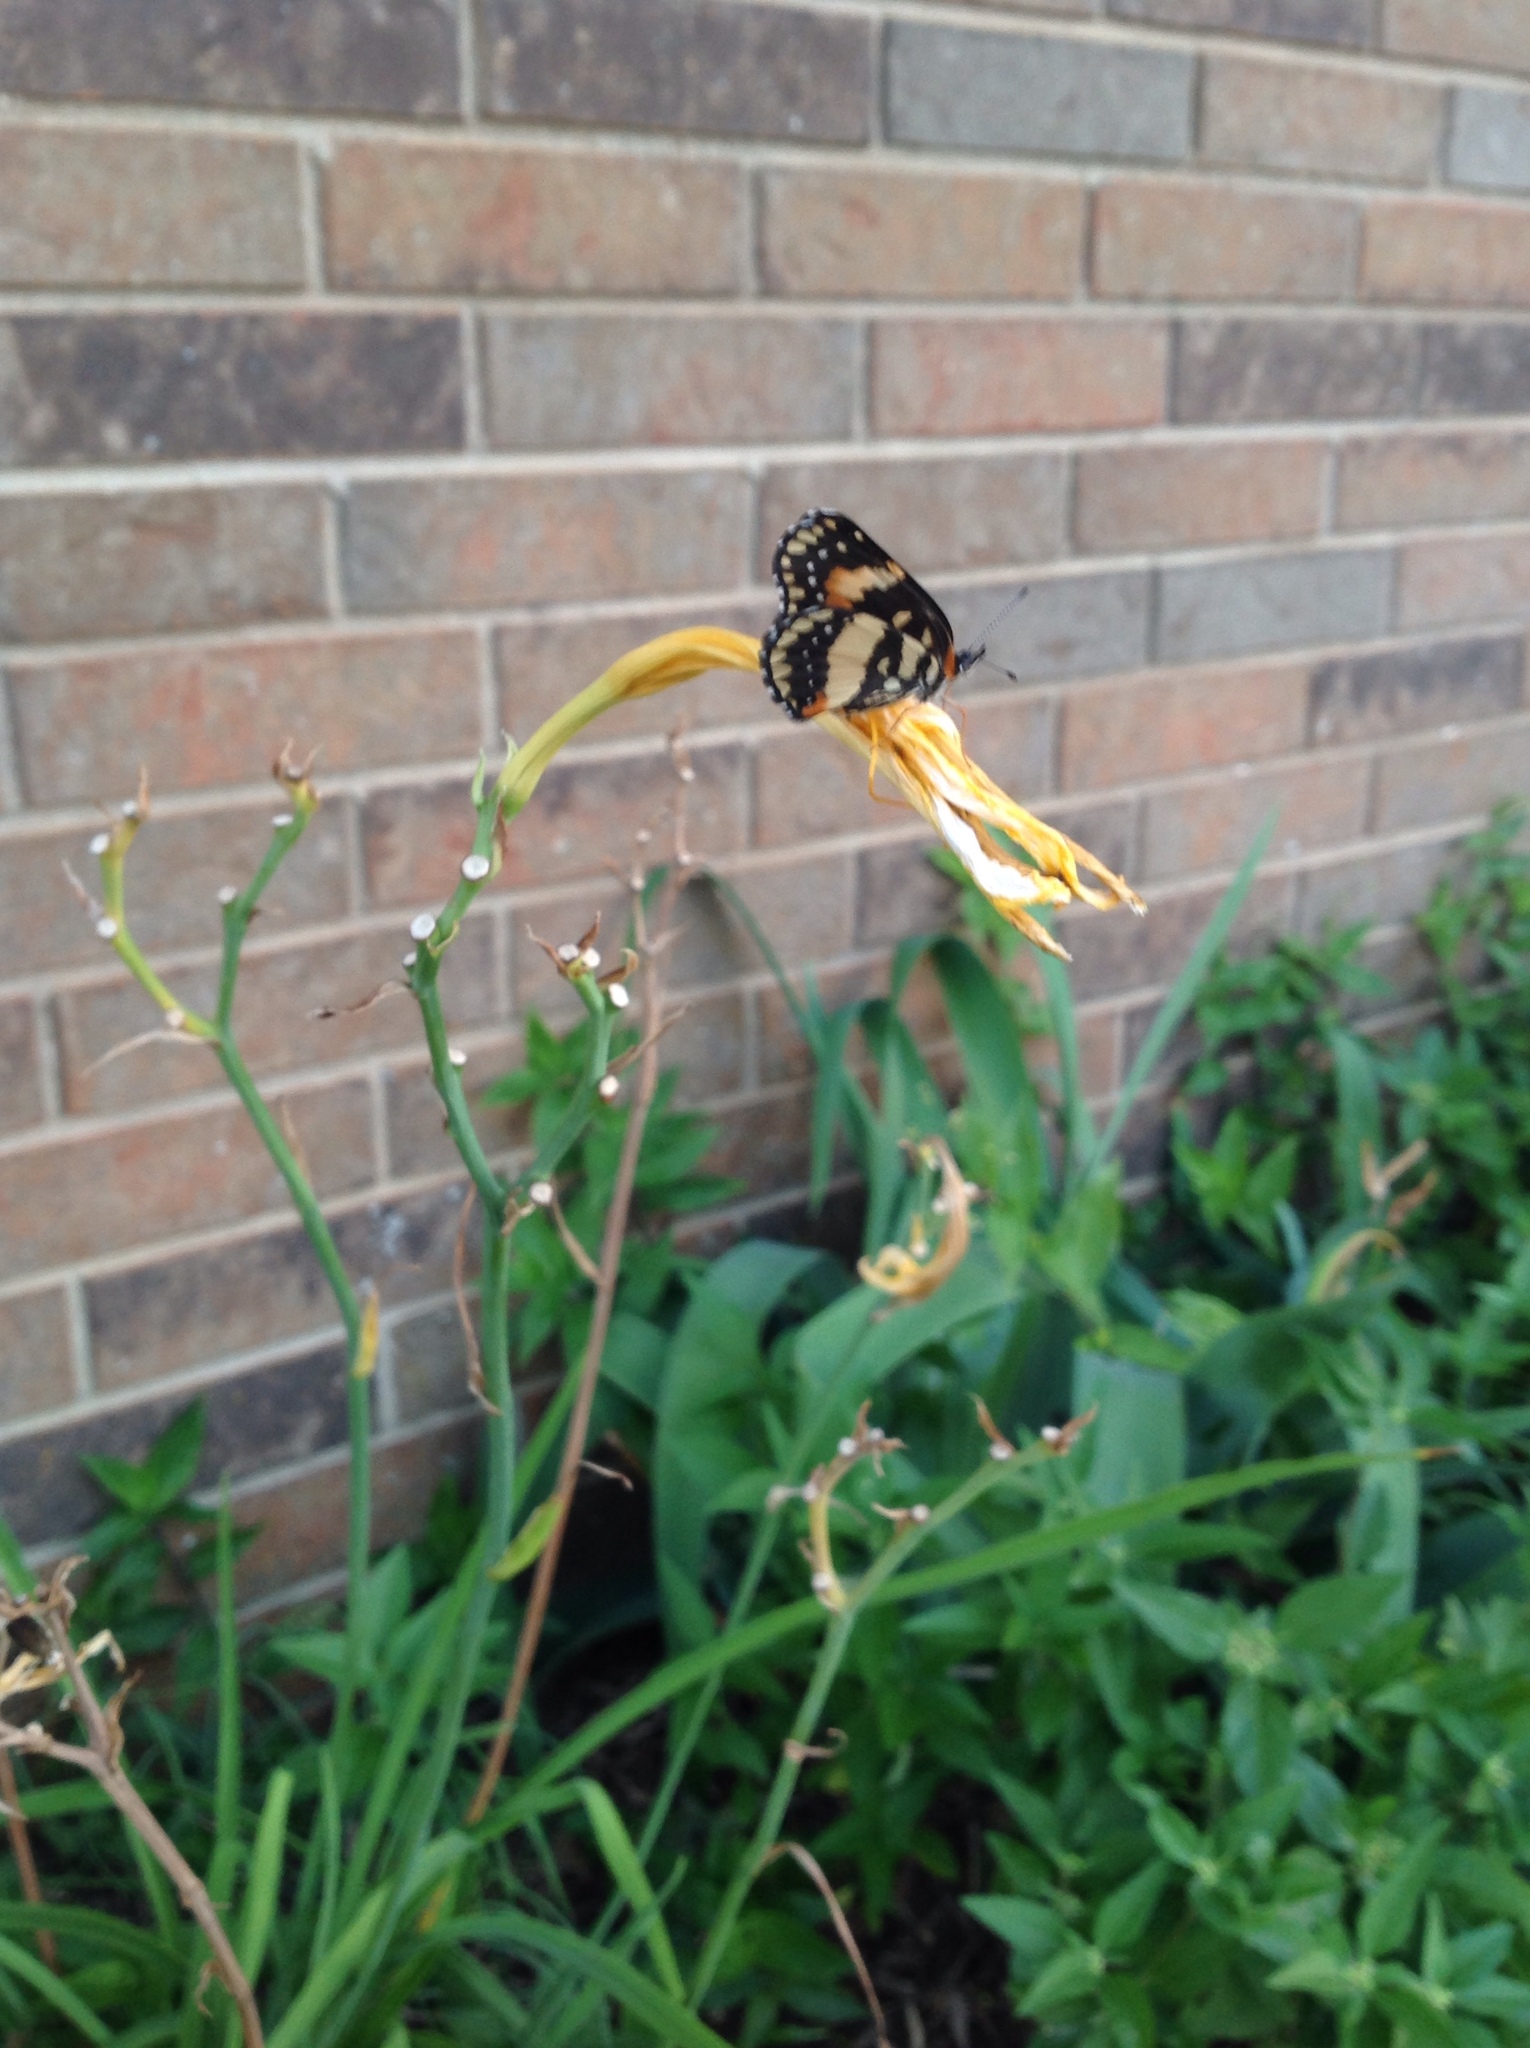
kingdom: Animalia
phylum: Arthropoda
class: Insecta
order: Lepidoptera
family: Nymphalidae
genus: Chlosyne
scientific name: Chlosyne lacinia
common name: Bordered patch
